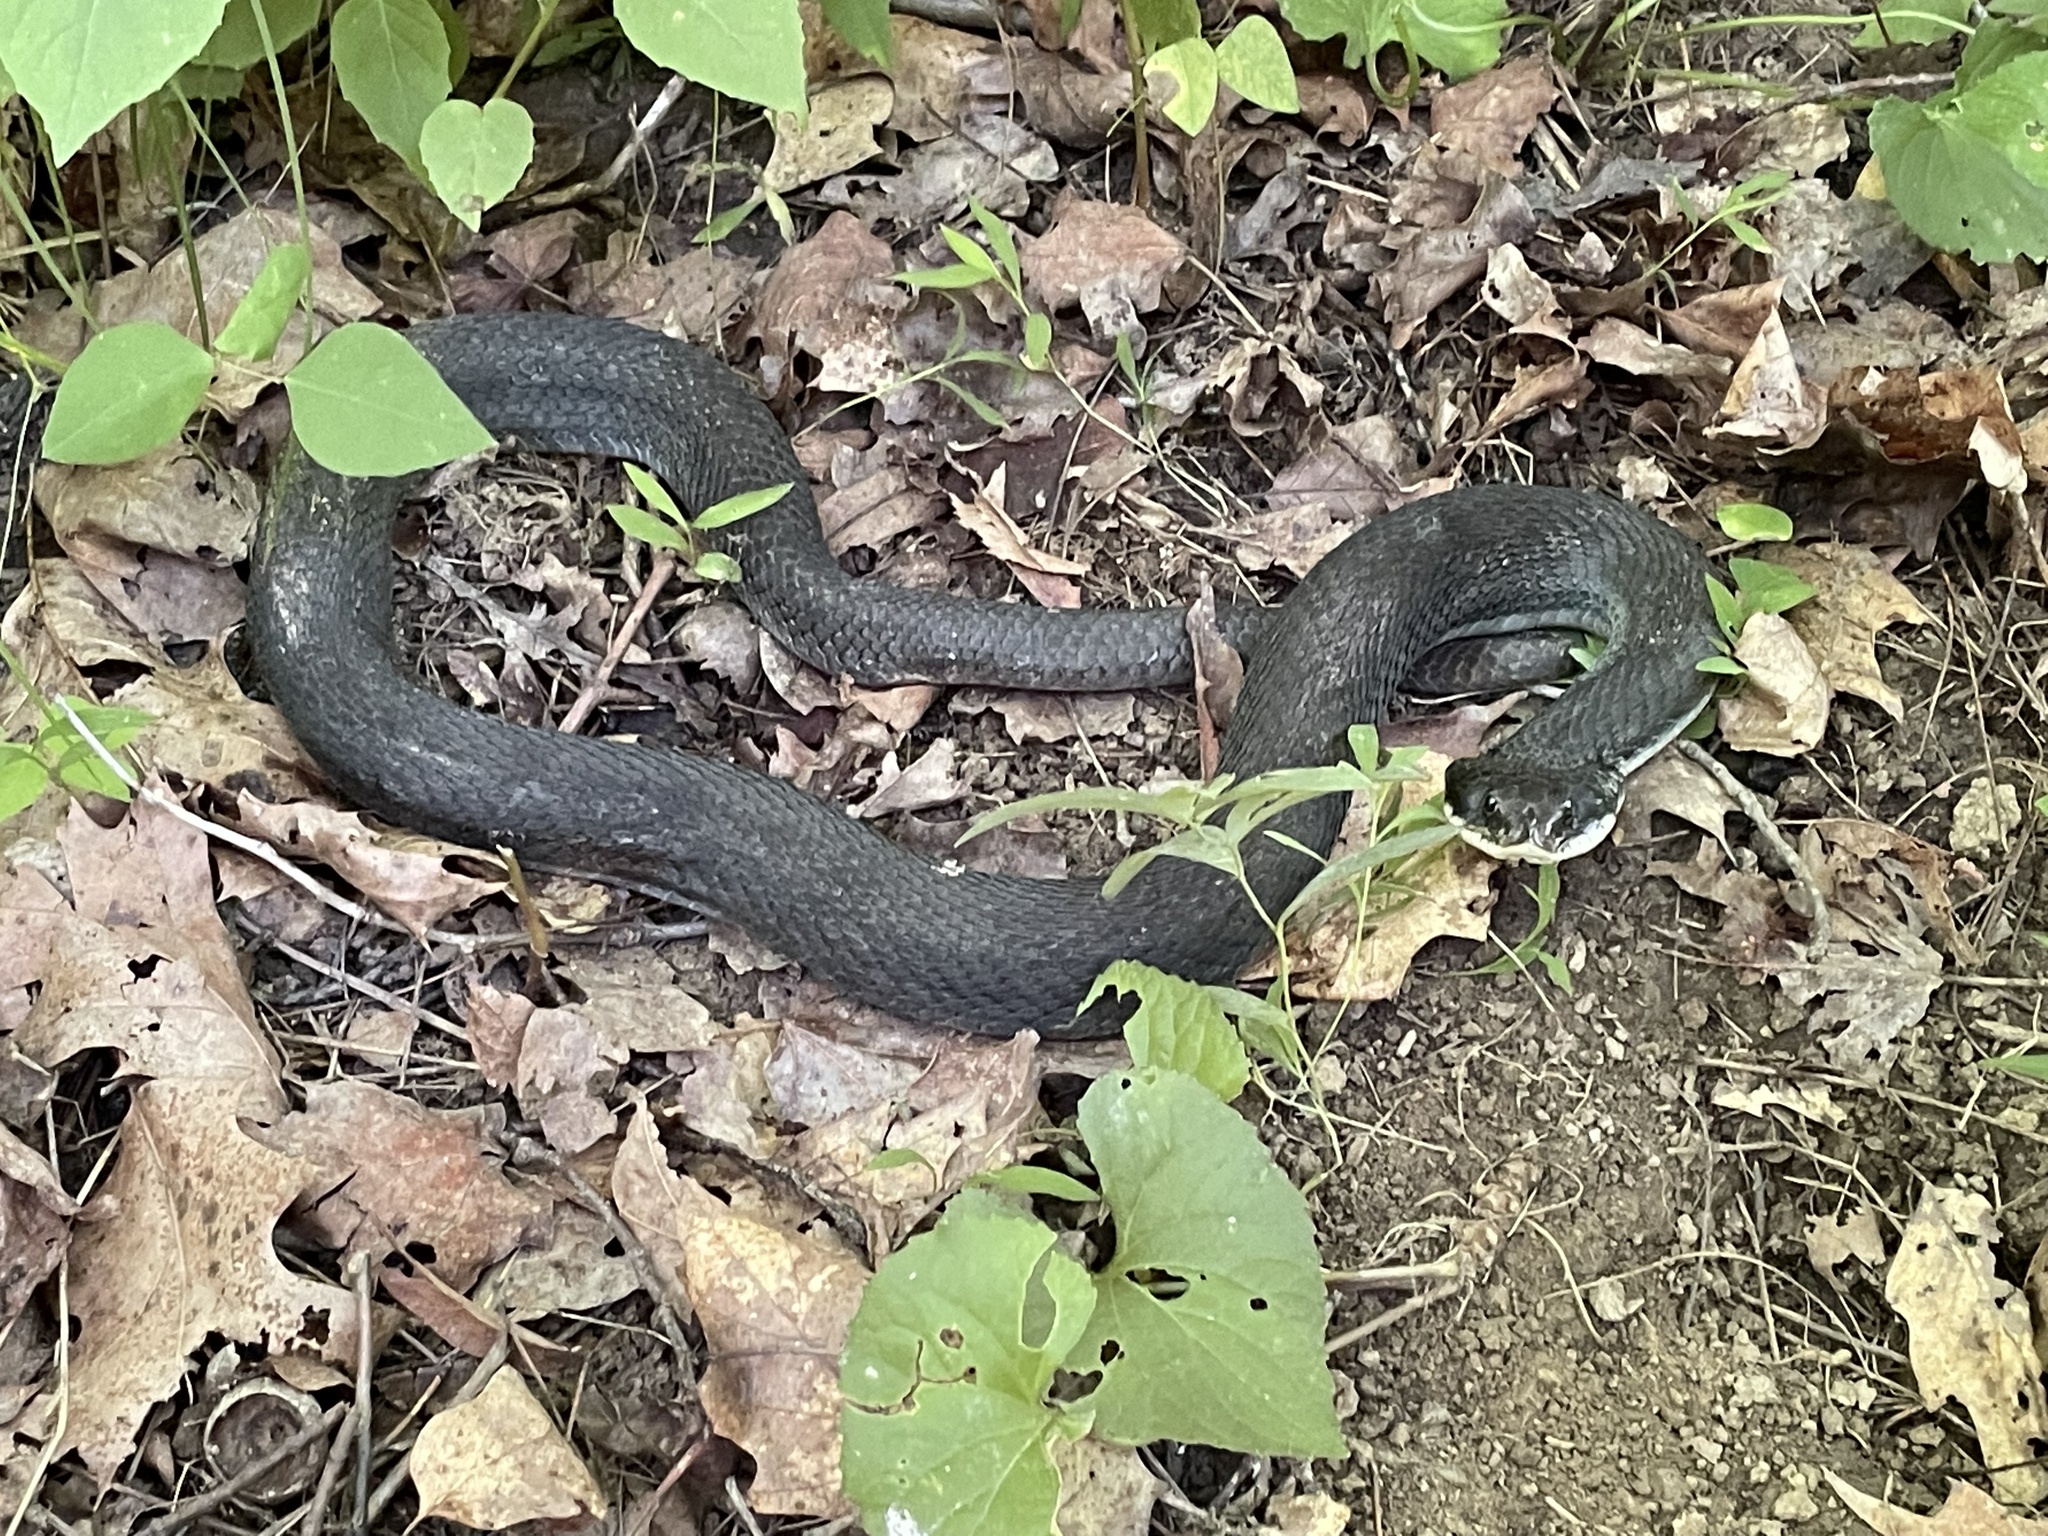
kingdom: Animalia
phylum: Chordata
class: Squamata
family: Colubridae
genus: Heterodon
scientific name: Heterodon platirhinos
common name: Eastern hognose snake
